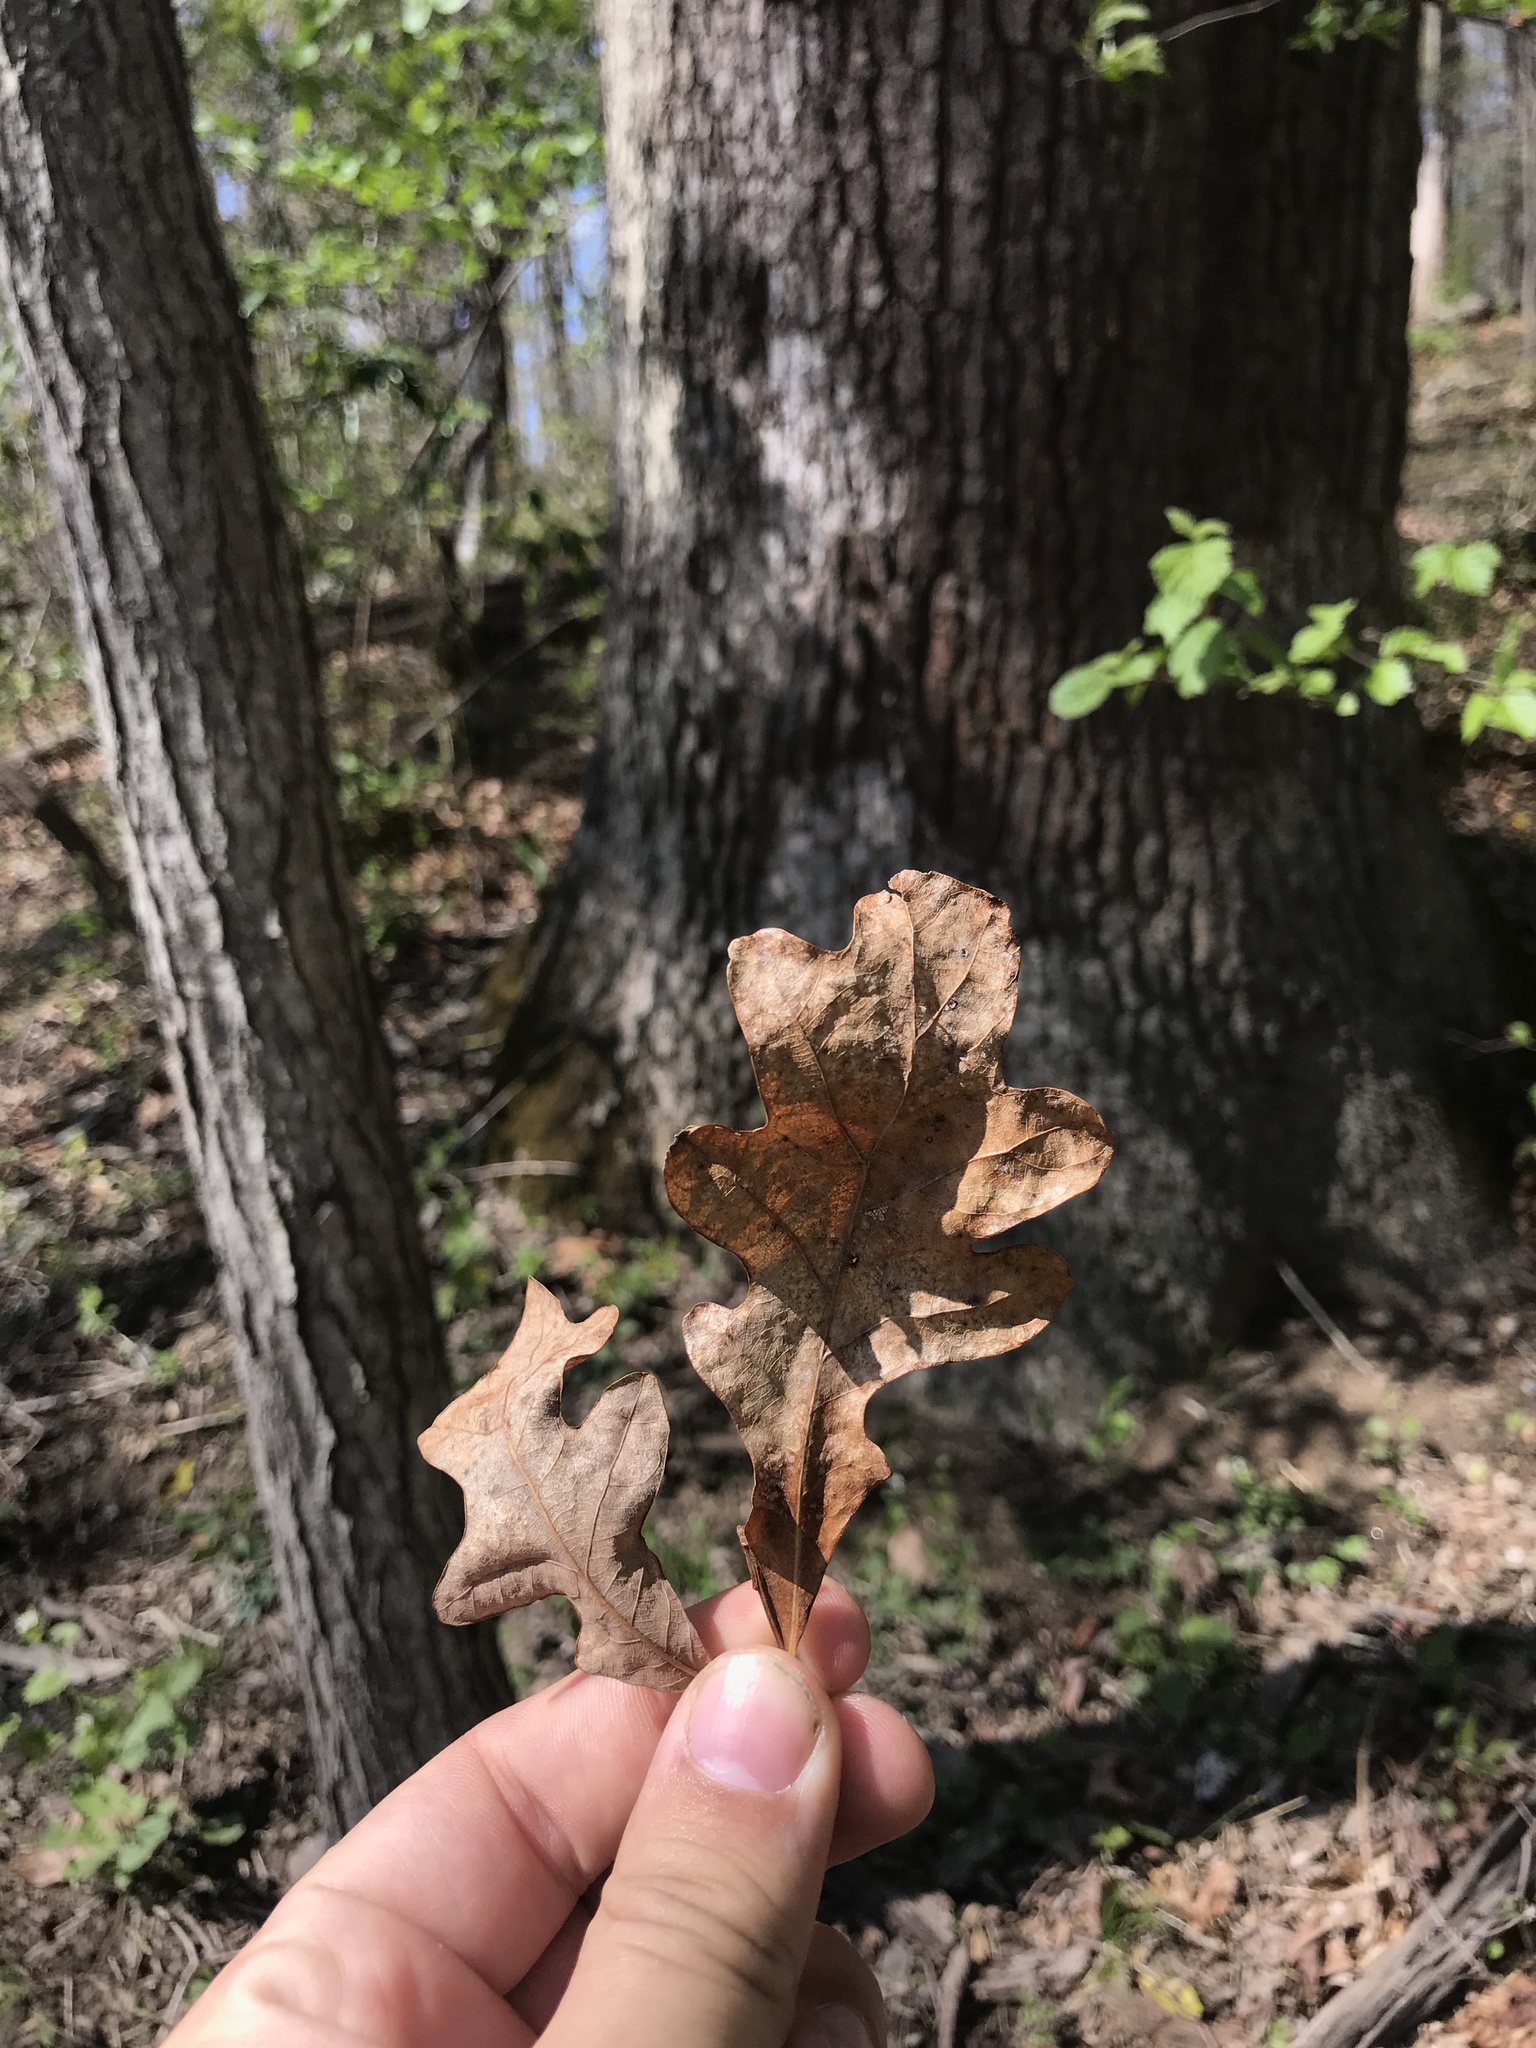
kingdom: Plantae
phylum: Tracheophyta
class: Magnoliopsida
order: Fagales
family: Fagaceae
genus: Quercus
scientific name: Quercus alba
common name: White oak
